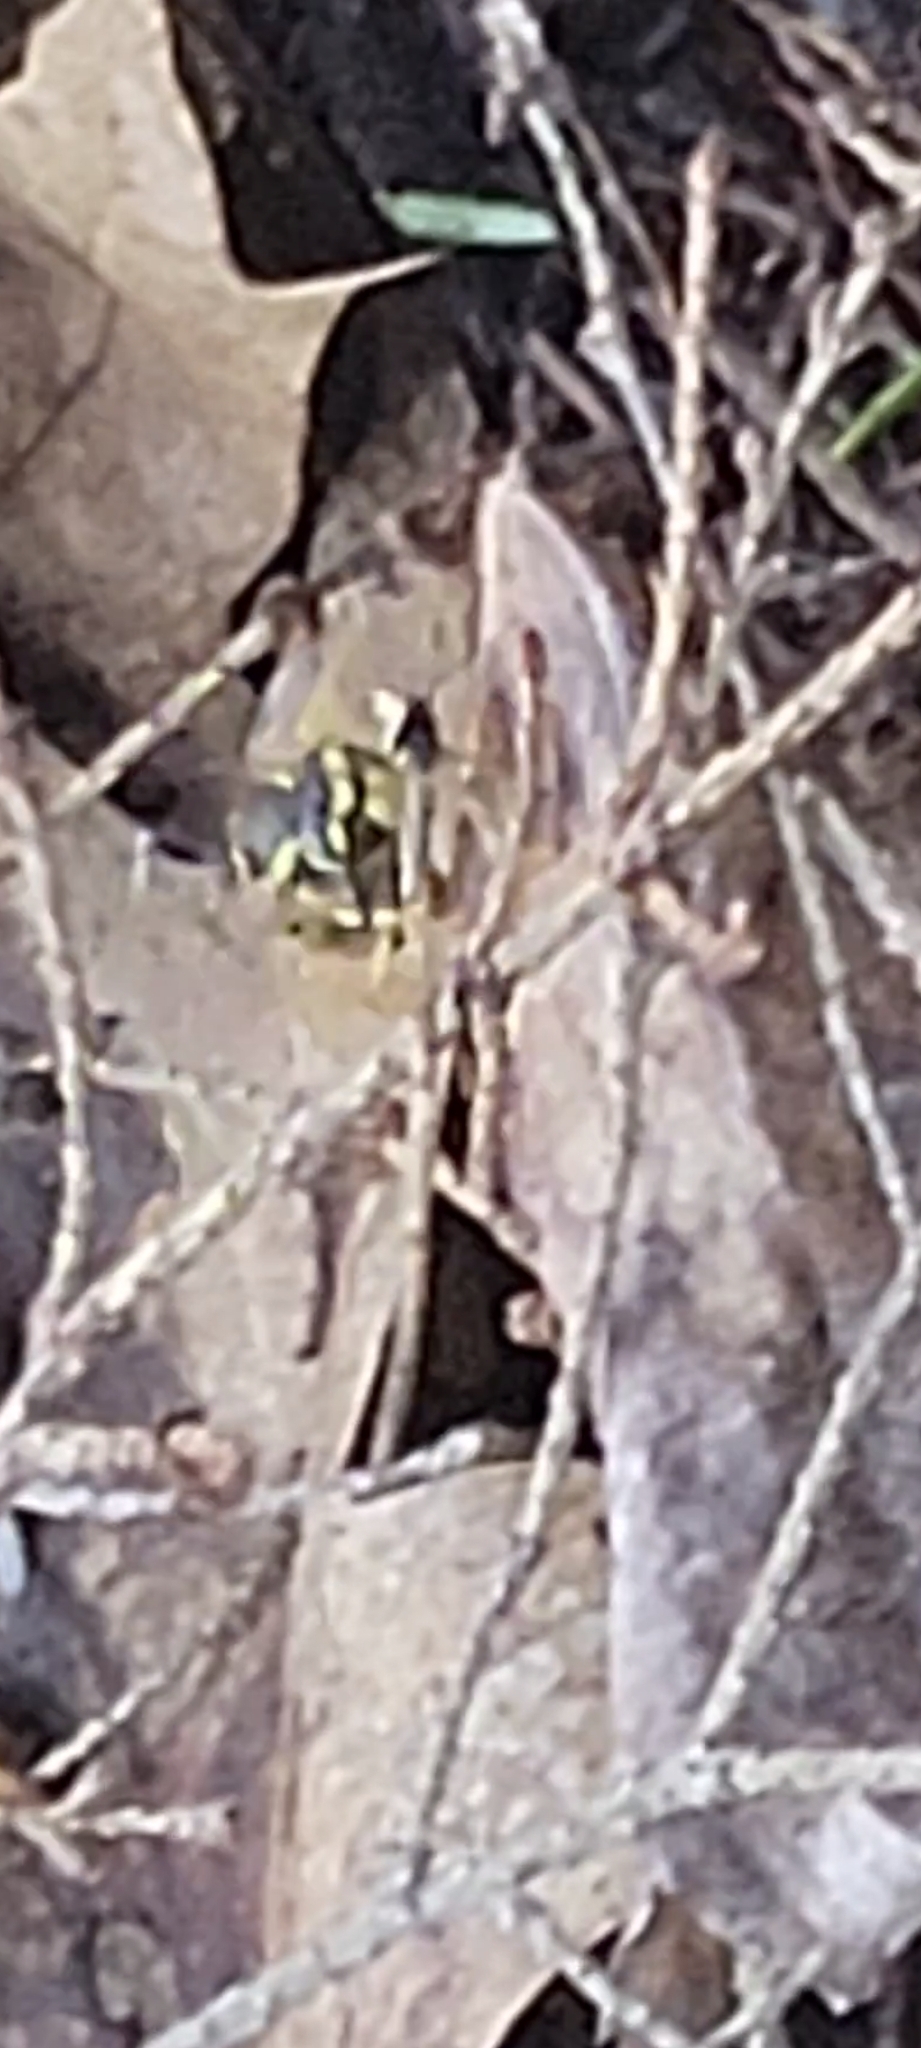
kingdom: Animalia
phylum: Arthropoda
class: Insecta
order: Hymenoptera
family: Vespidae
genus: Vespula
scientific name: Vespula maculifrons
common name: Eastern yellowjacket
